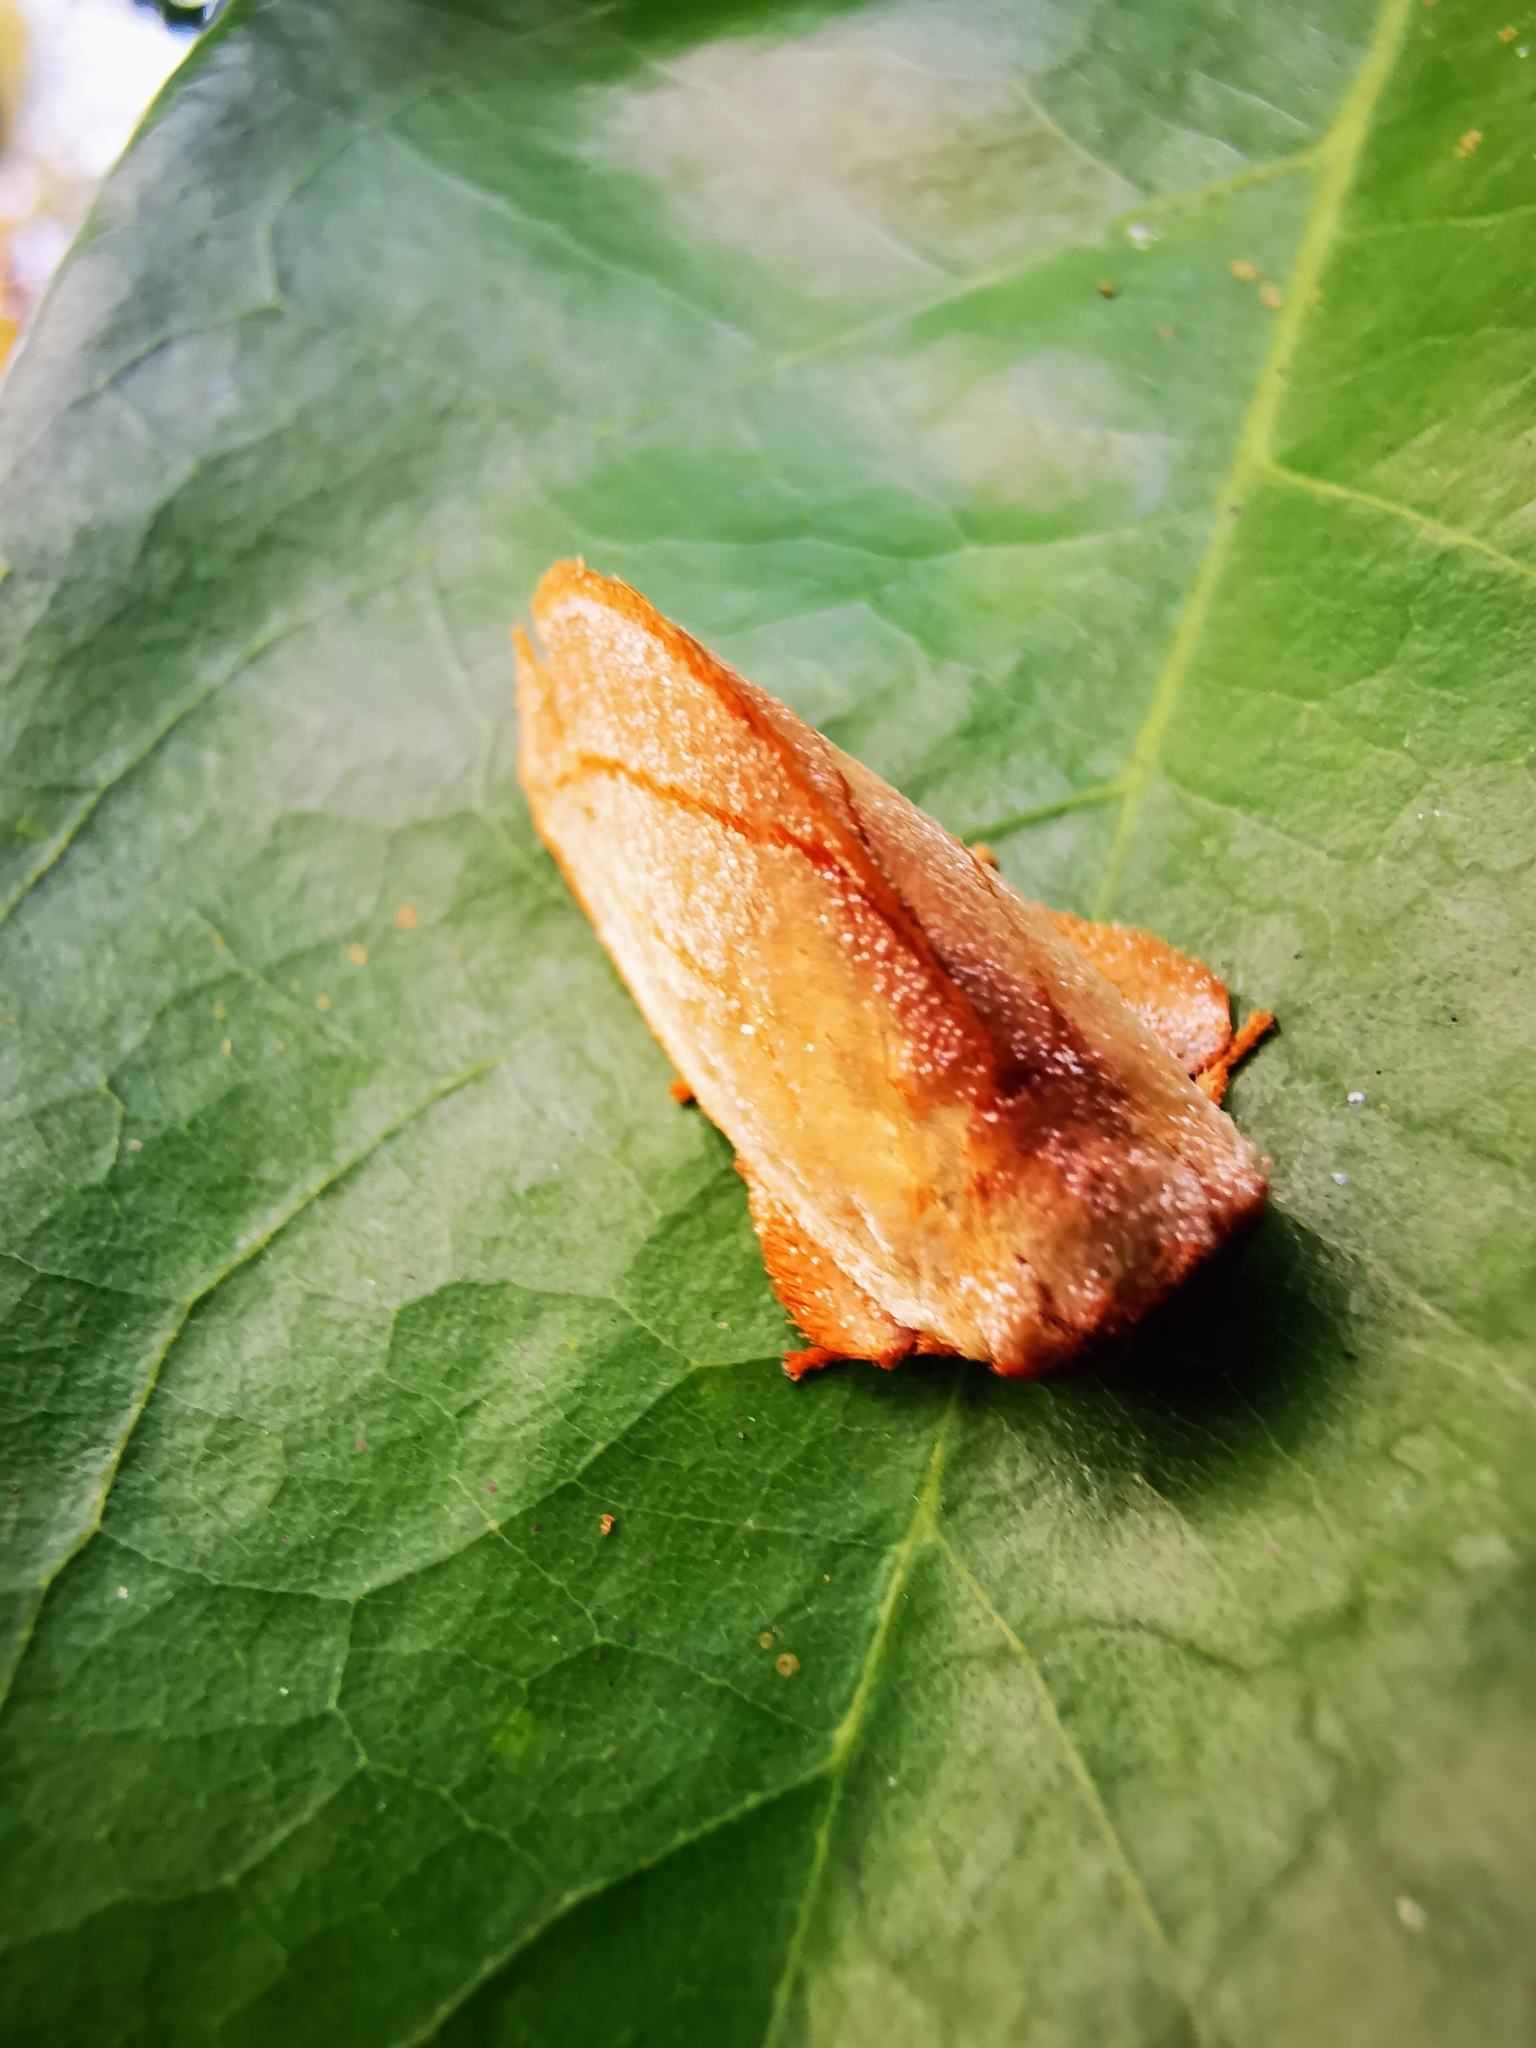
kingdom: Animalia
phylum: Arthropoda
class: Insecta
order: Lepidoptera
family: Limacodidae
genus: Cania
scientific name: Cania bandura
